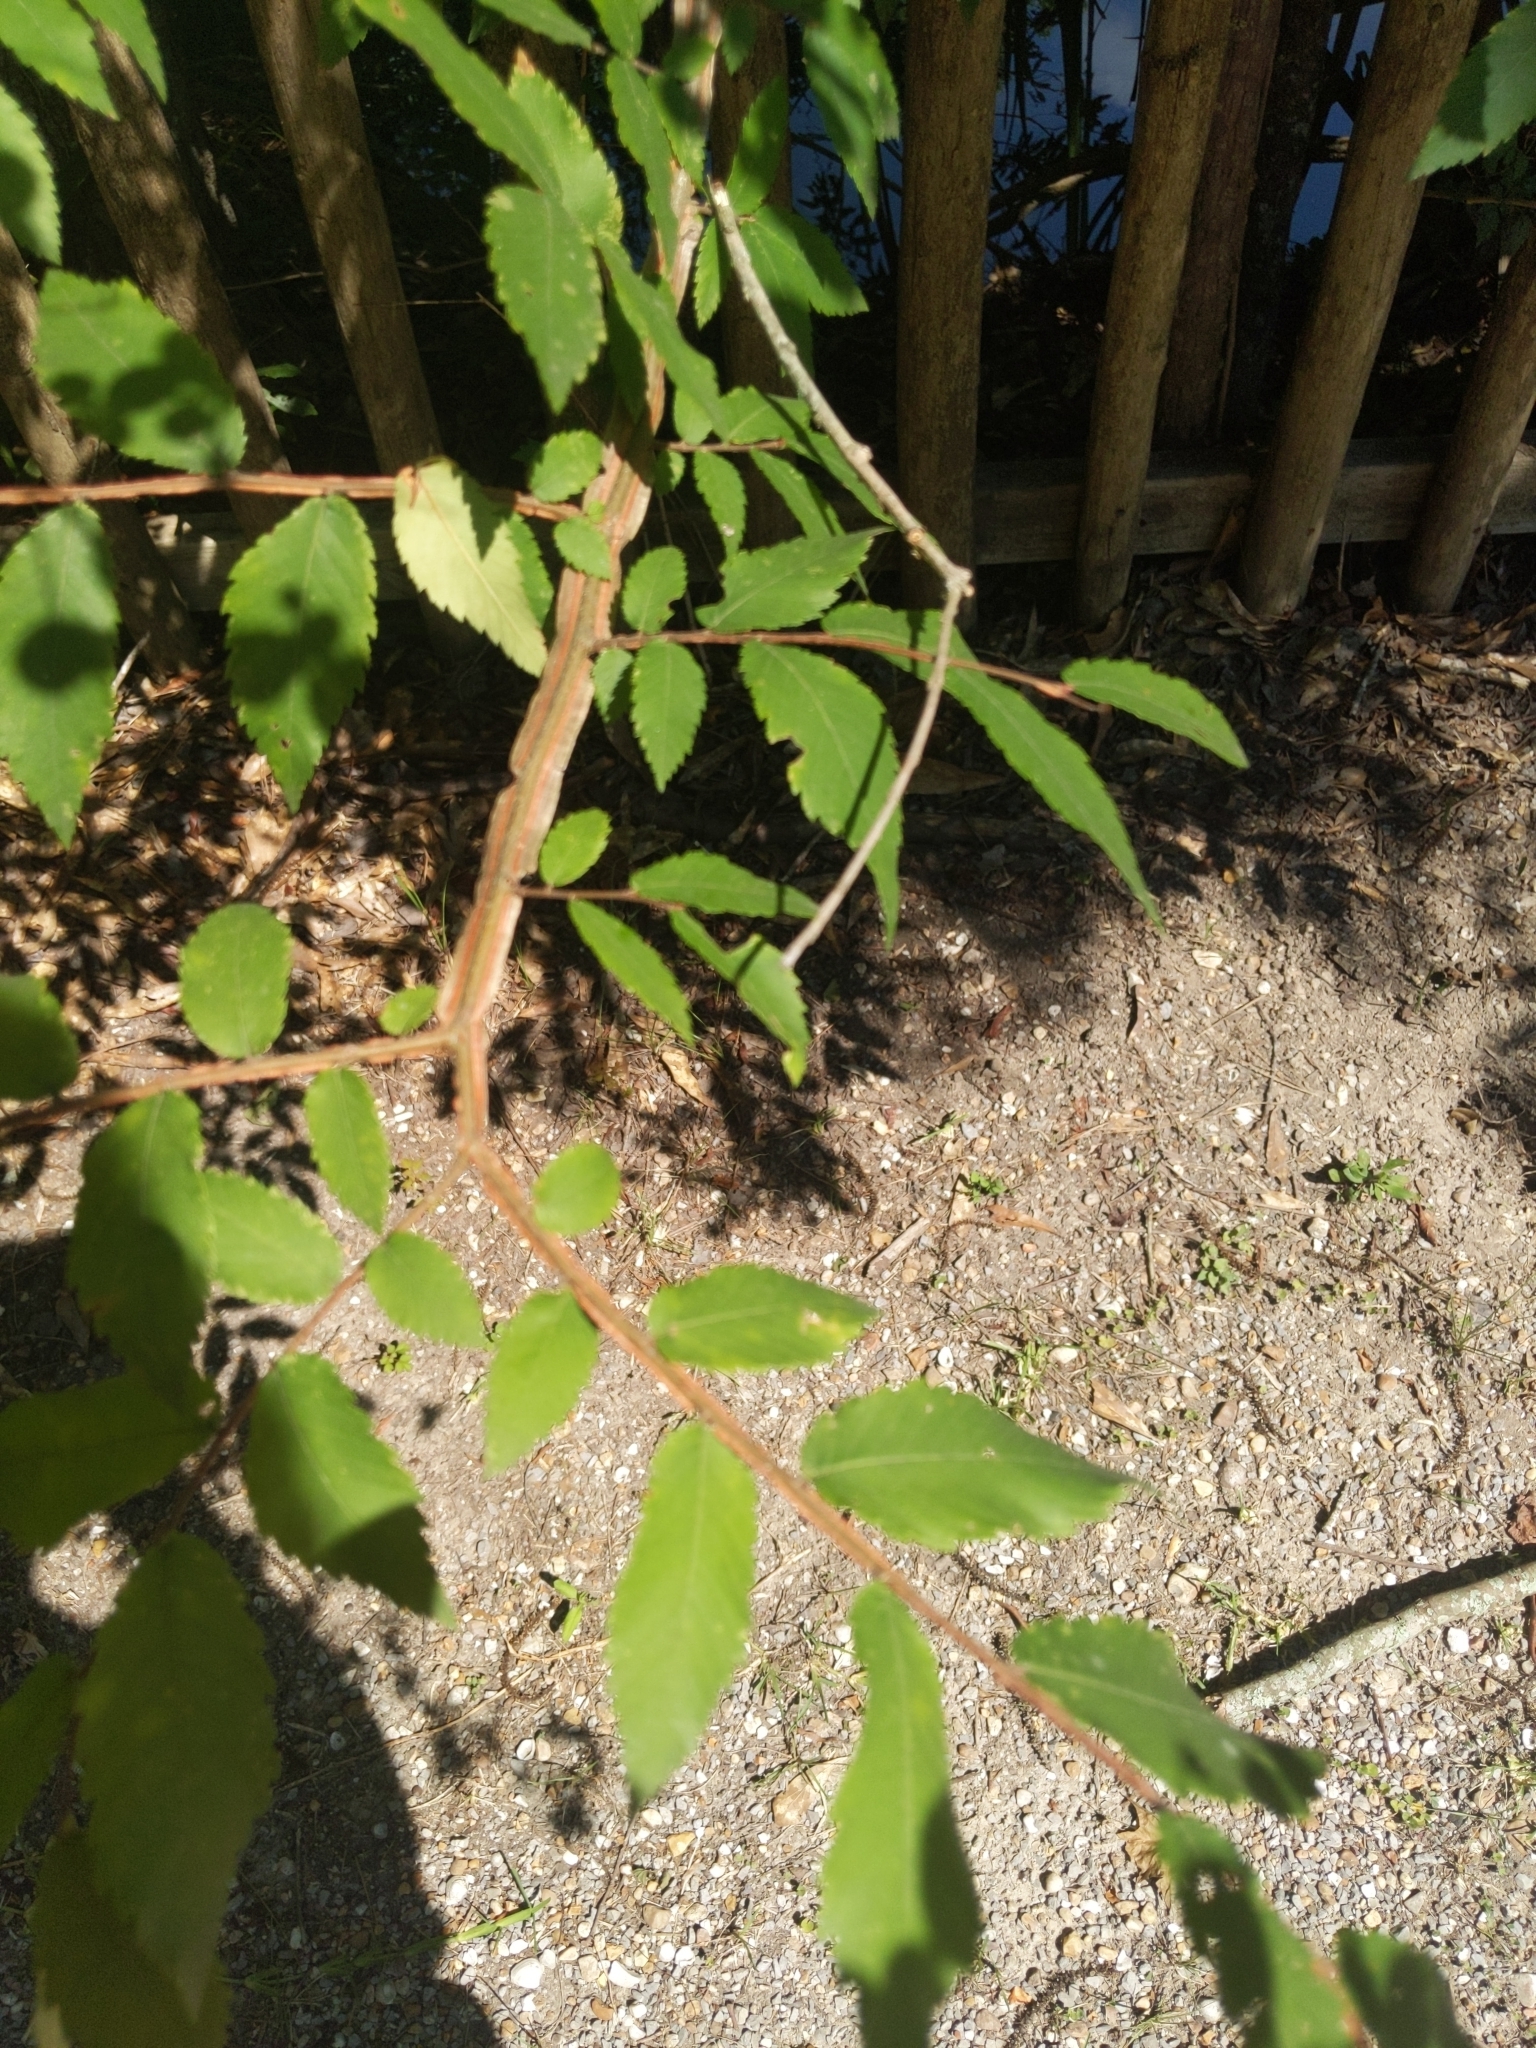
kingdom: Plantae
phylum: Tracheophyta
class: Magnoliopsida
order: Rosales
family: Ulmaceae
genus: Ulmus
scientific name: Ulmus alata
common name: Winged elm
